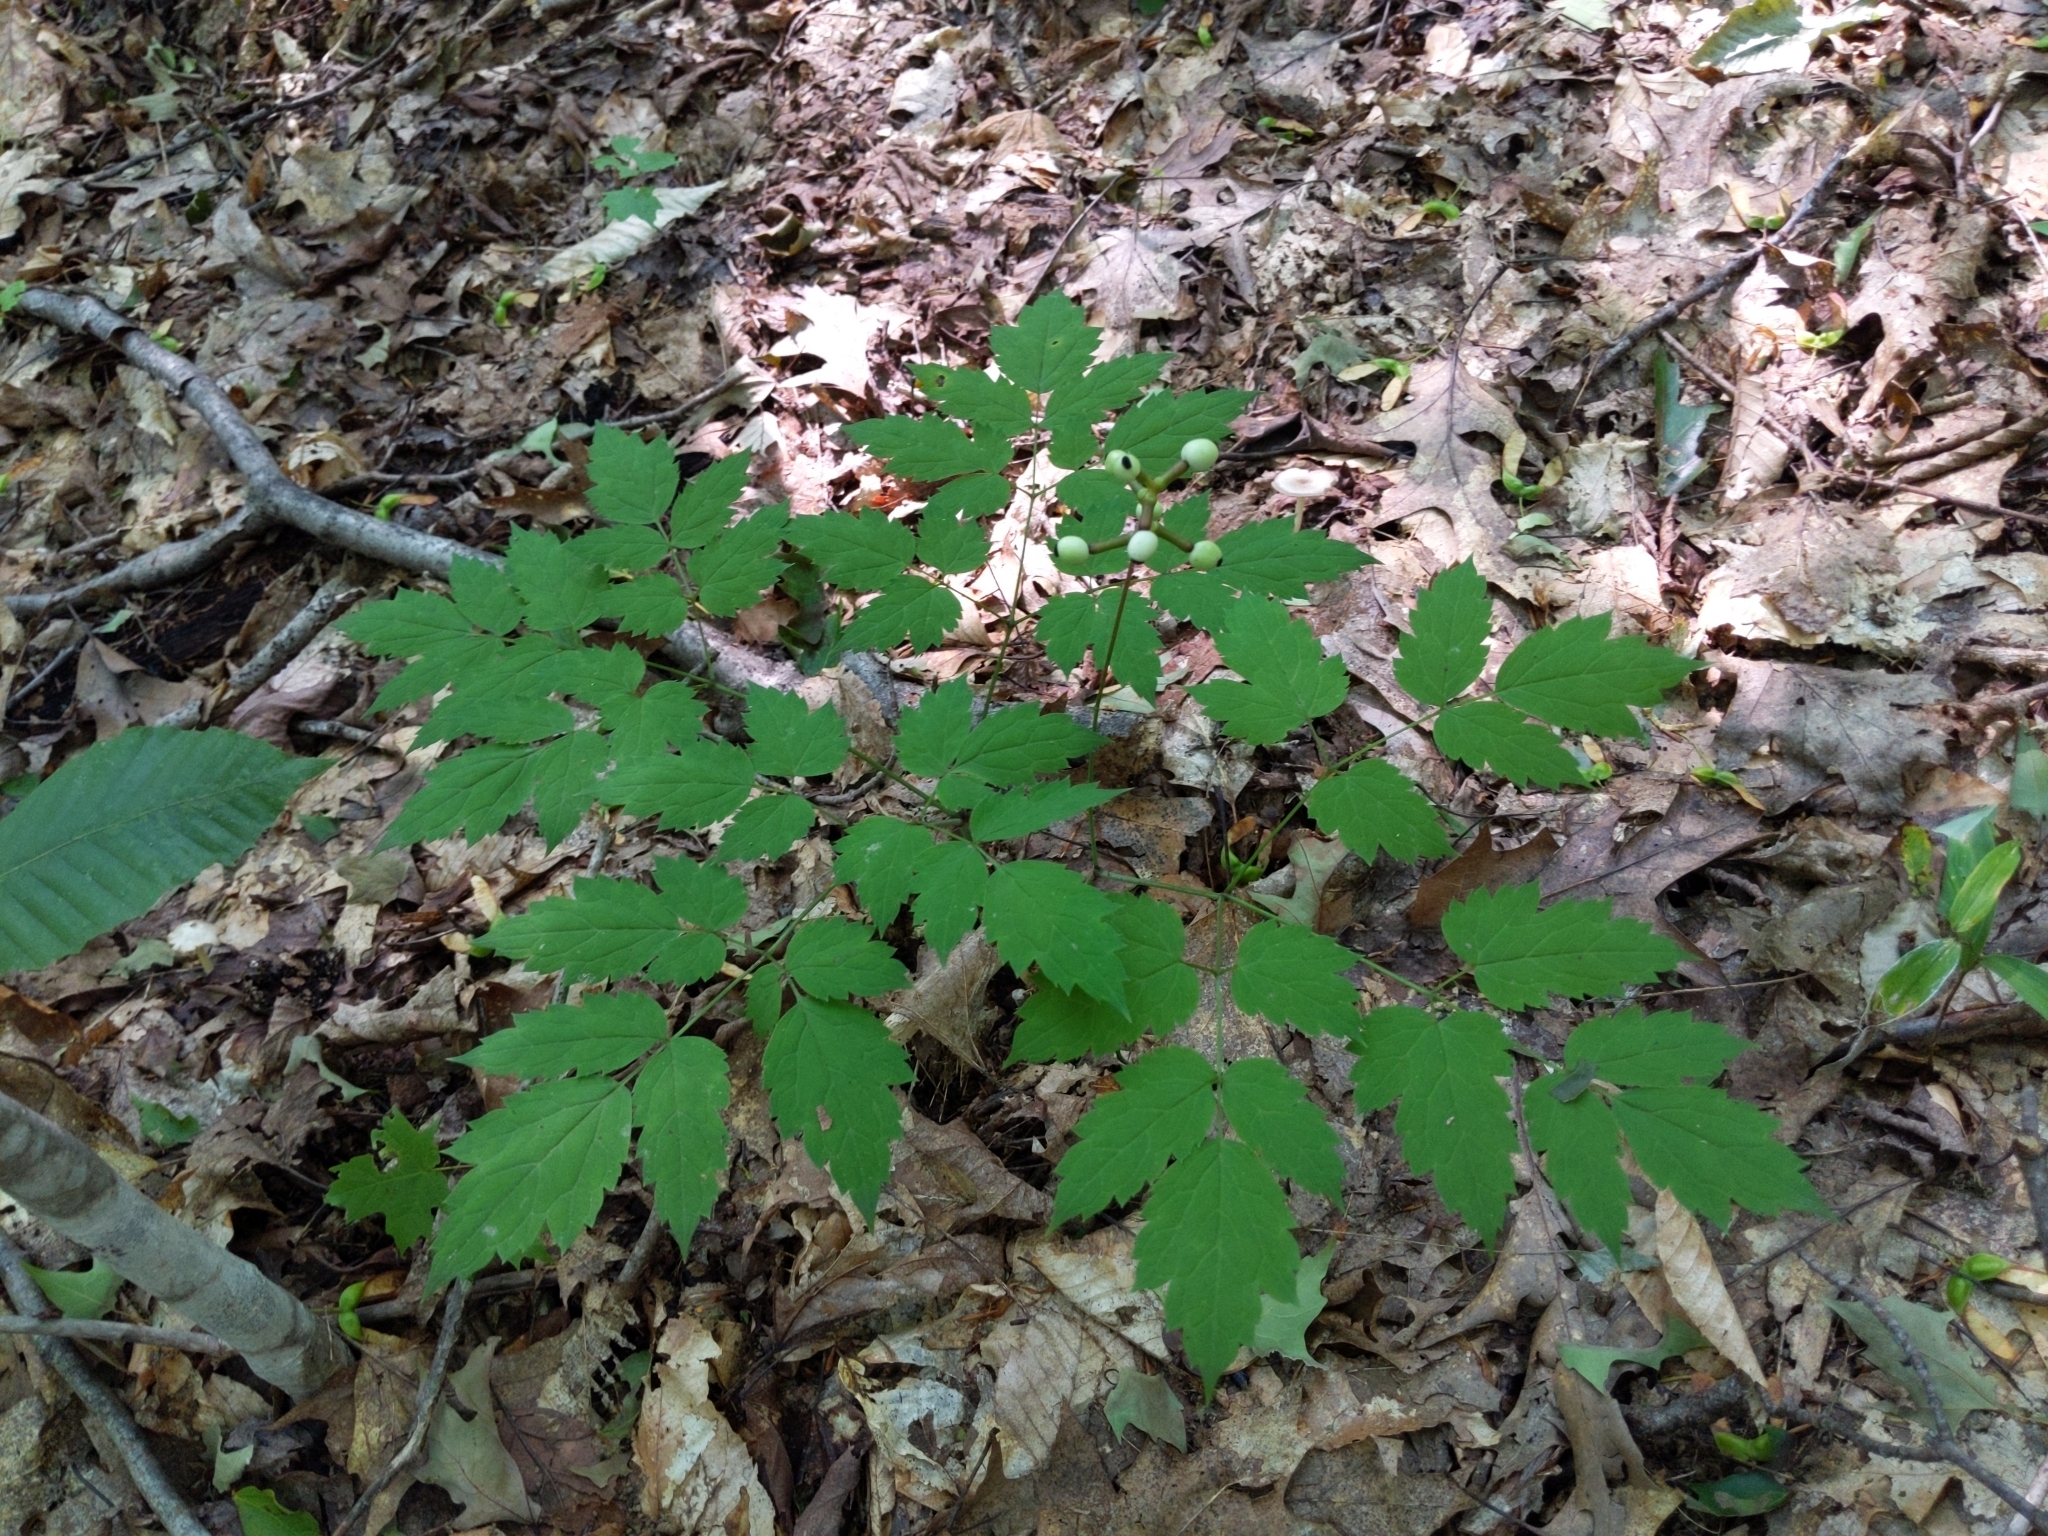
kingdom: Plantae
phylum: Tracheophyta
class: Magnoliopsida
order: Ranunculales
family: Ranunculaceae
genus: Actaea
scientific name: Actaea pachypoda
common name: Doll's-eyes
